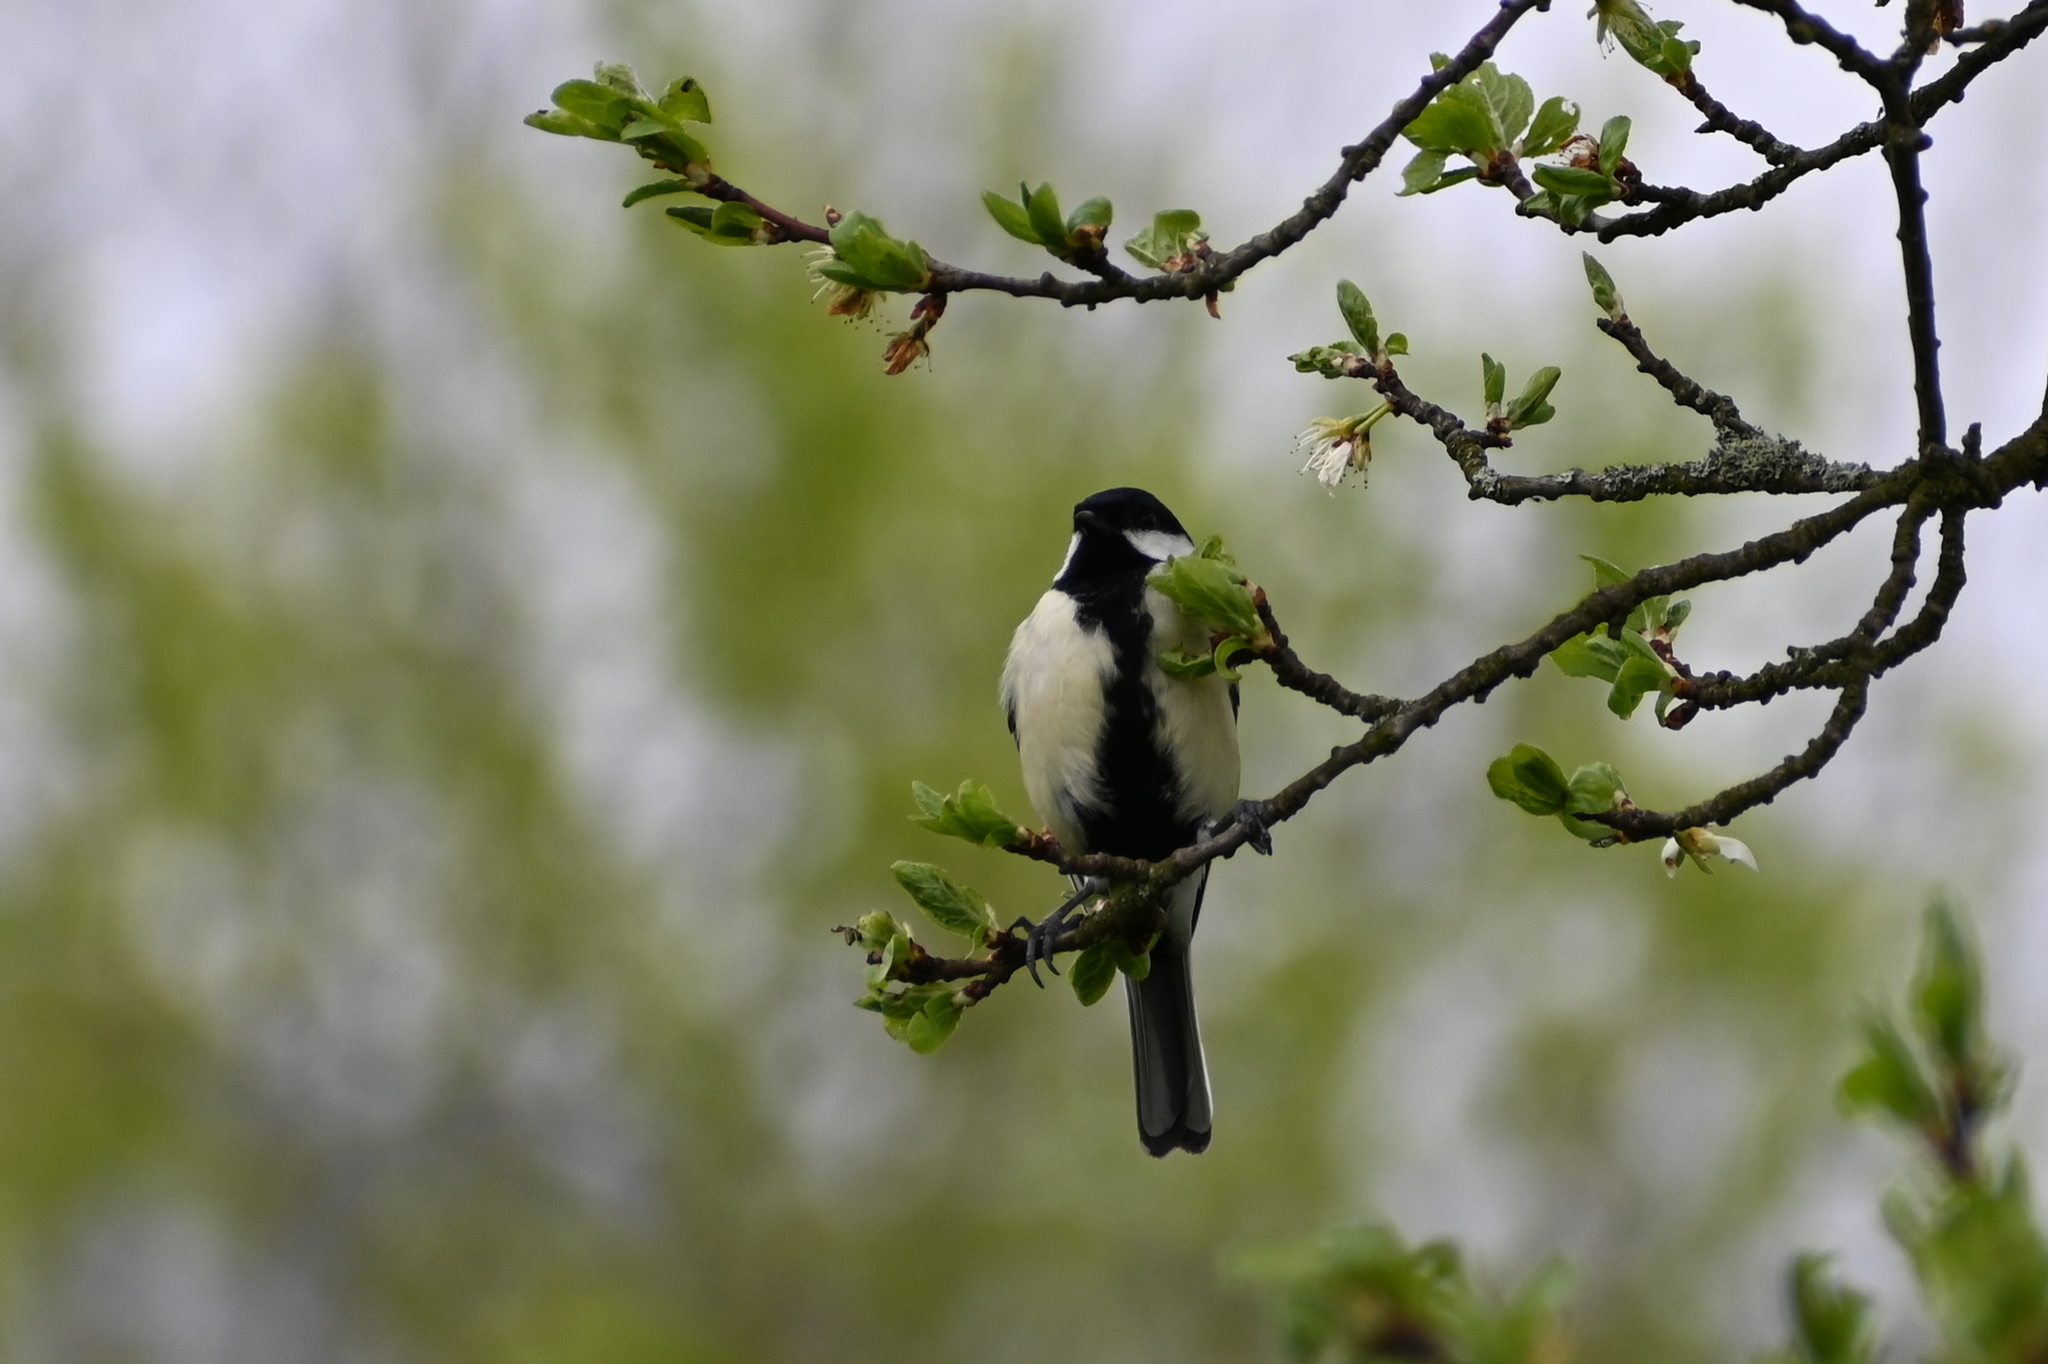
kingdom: Animalia
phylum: Chordata
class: Aves
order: Passeriformes
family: Paridae
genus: Parus
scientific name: Parus major
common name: Great tit
